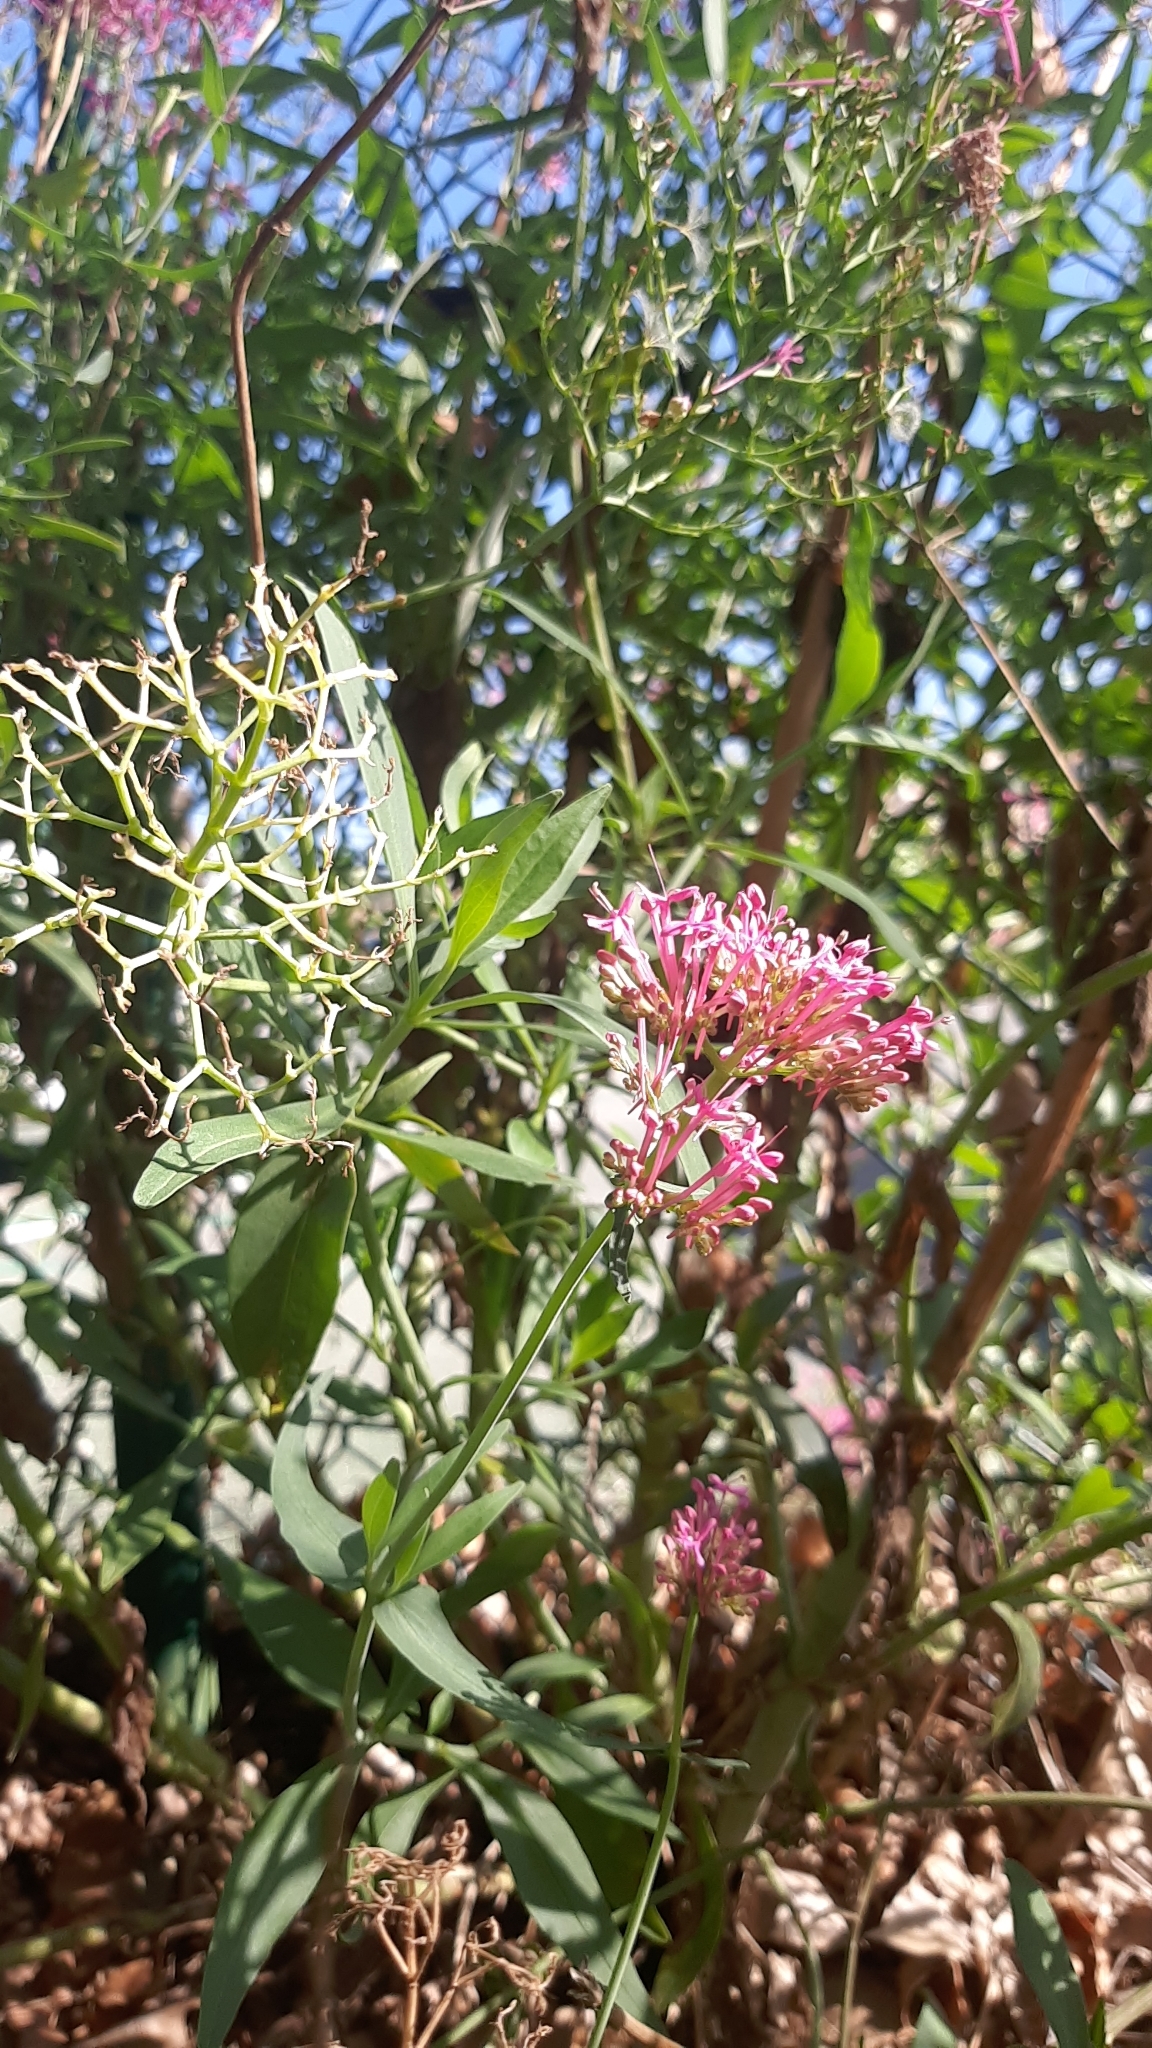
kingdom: Plantae
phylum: Tracheophyta
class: Magnoliopsida
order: Dipsacales
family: Caprifoliaceae
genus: Centranthus
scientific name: Centranthus ruber
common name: Red valerian
